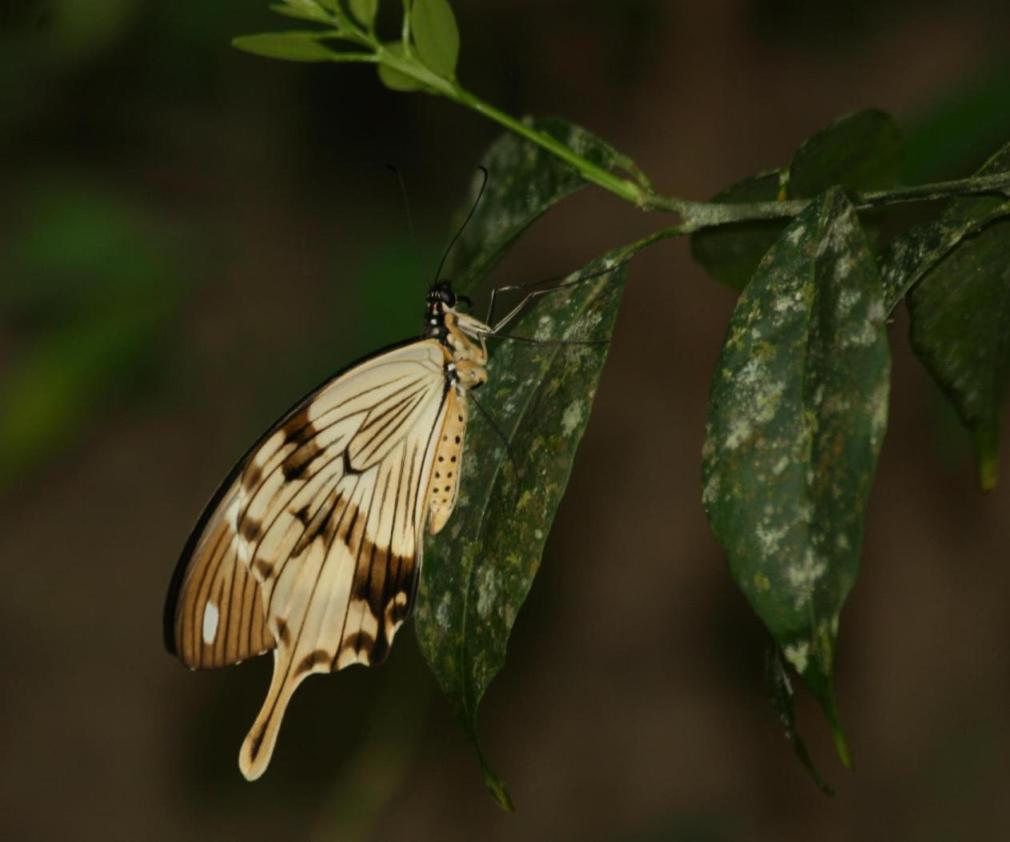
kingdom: Animalia
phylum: Arthropoda
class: Insecta
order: Lepidoptera
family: Papilionidae
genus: Papilio
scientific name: Papilio dardanus
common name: Flying handkerchief
